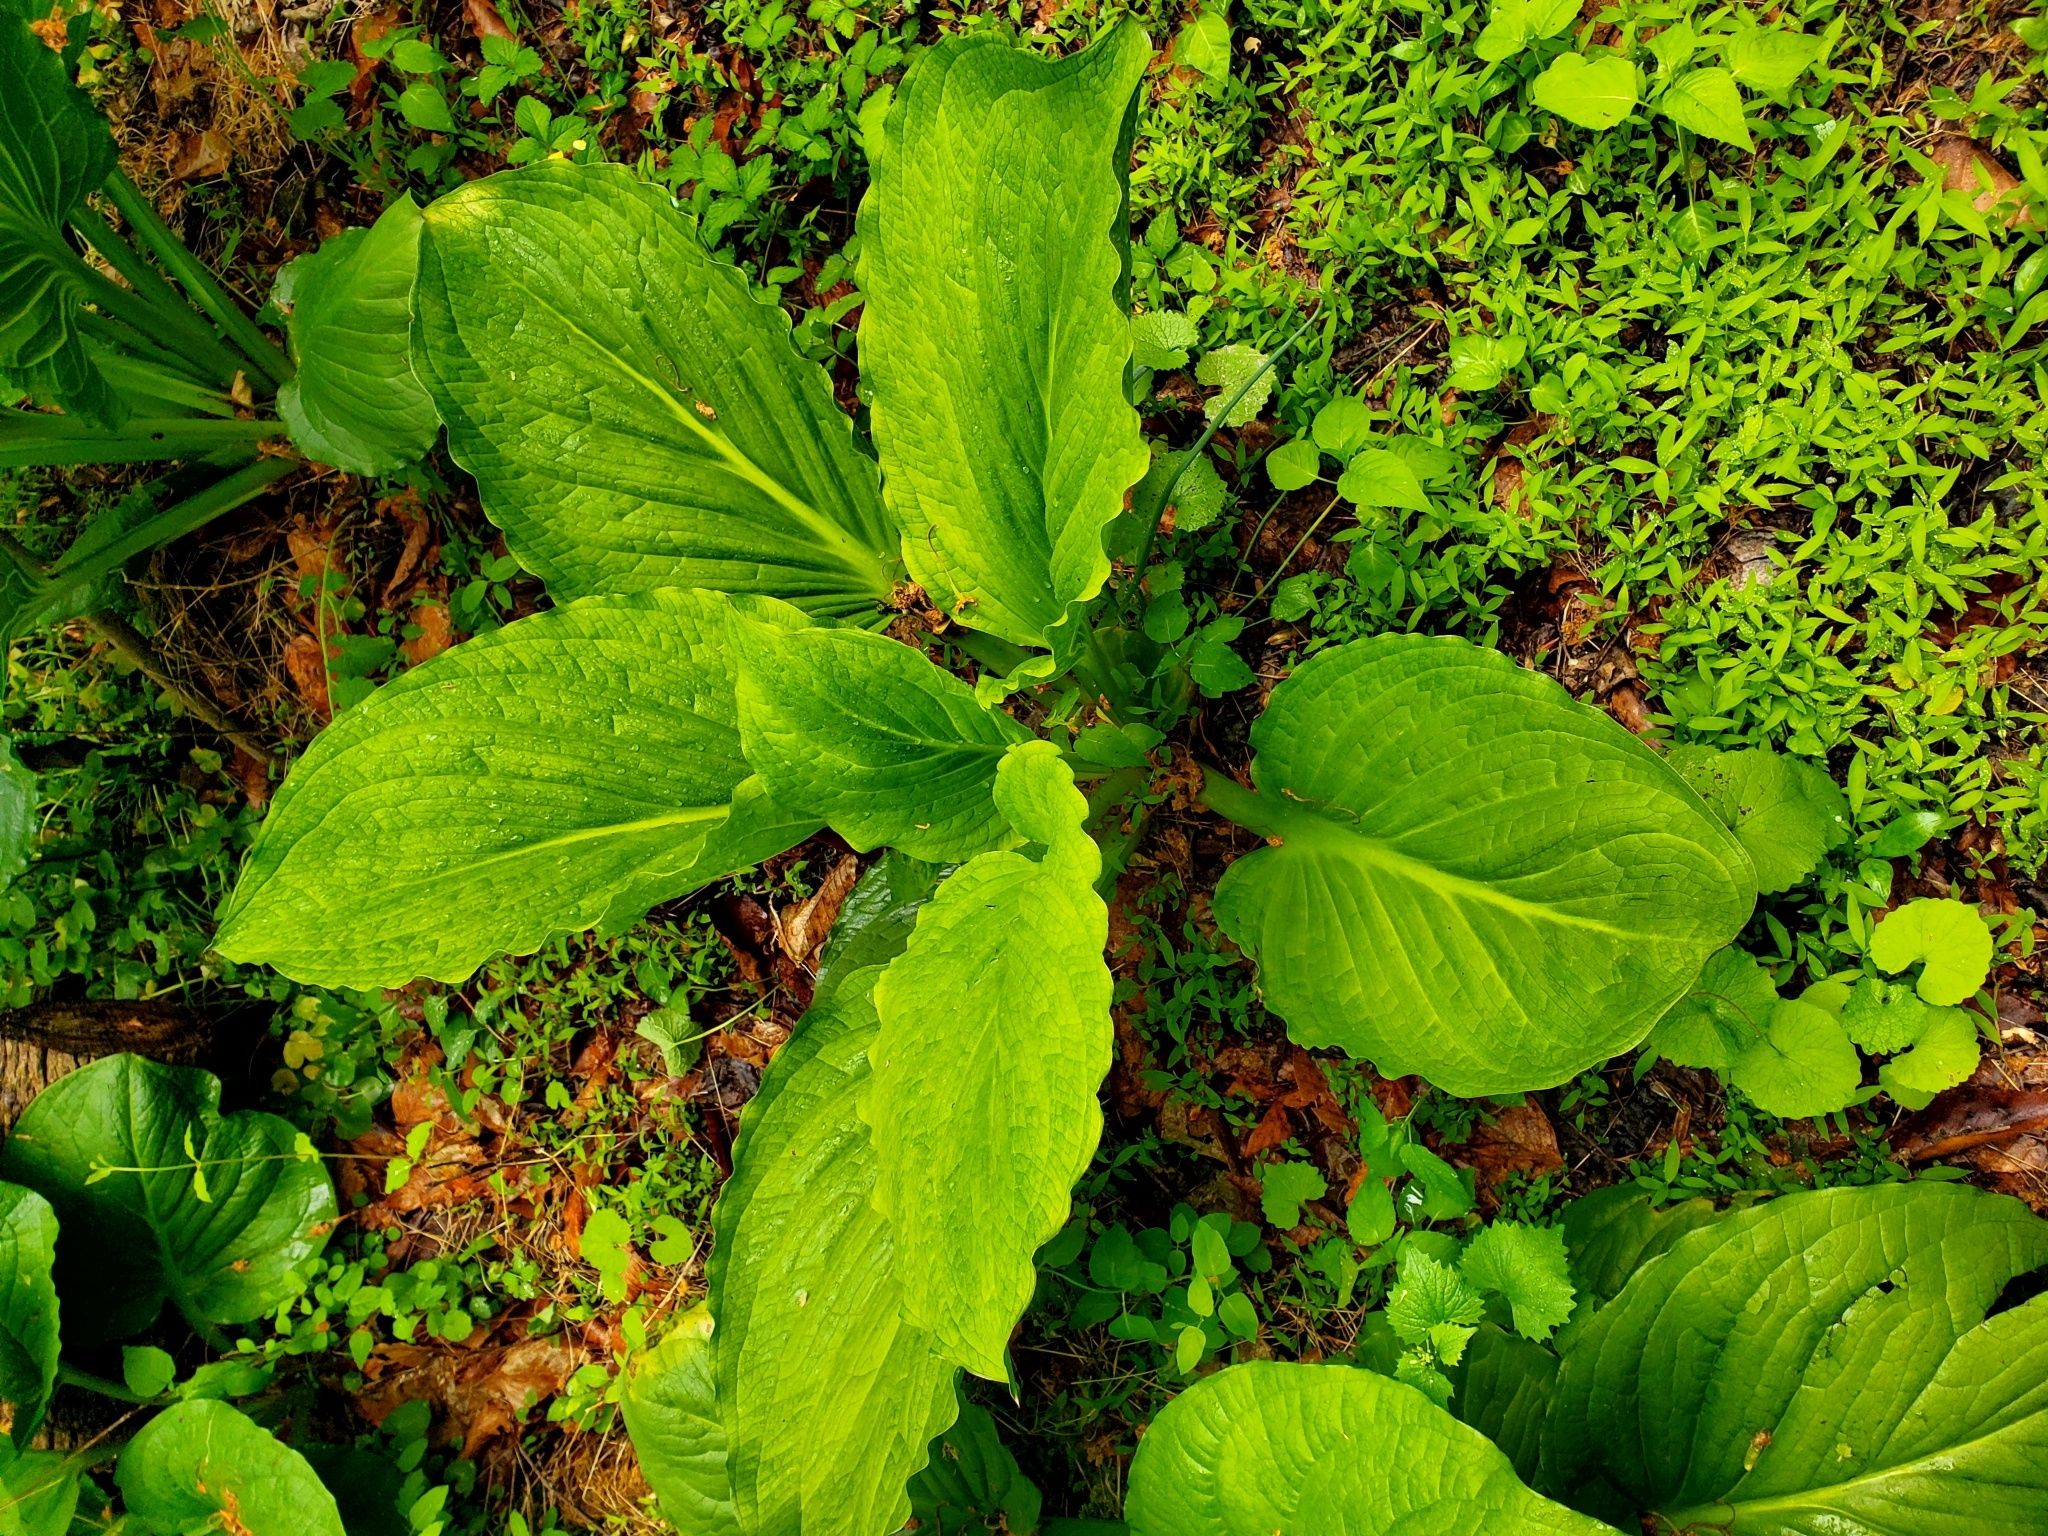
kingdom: Plantae
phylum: Tracheophyta
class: Liliopsida
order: Alismatales
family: Araceae
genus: Symplocarpus
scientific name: Symplocarpus foetidus
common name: Eastern skunk cabbage
